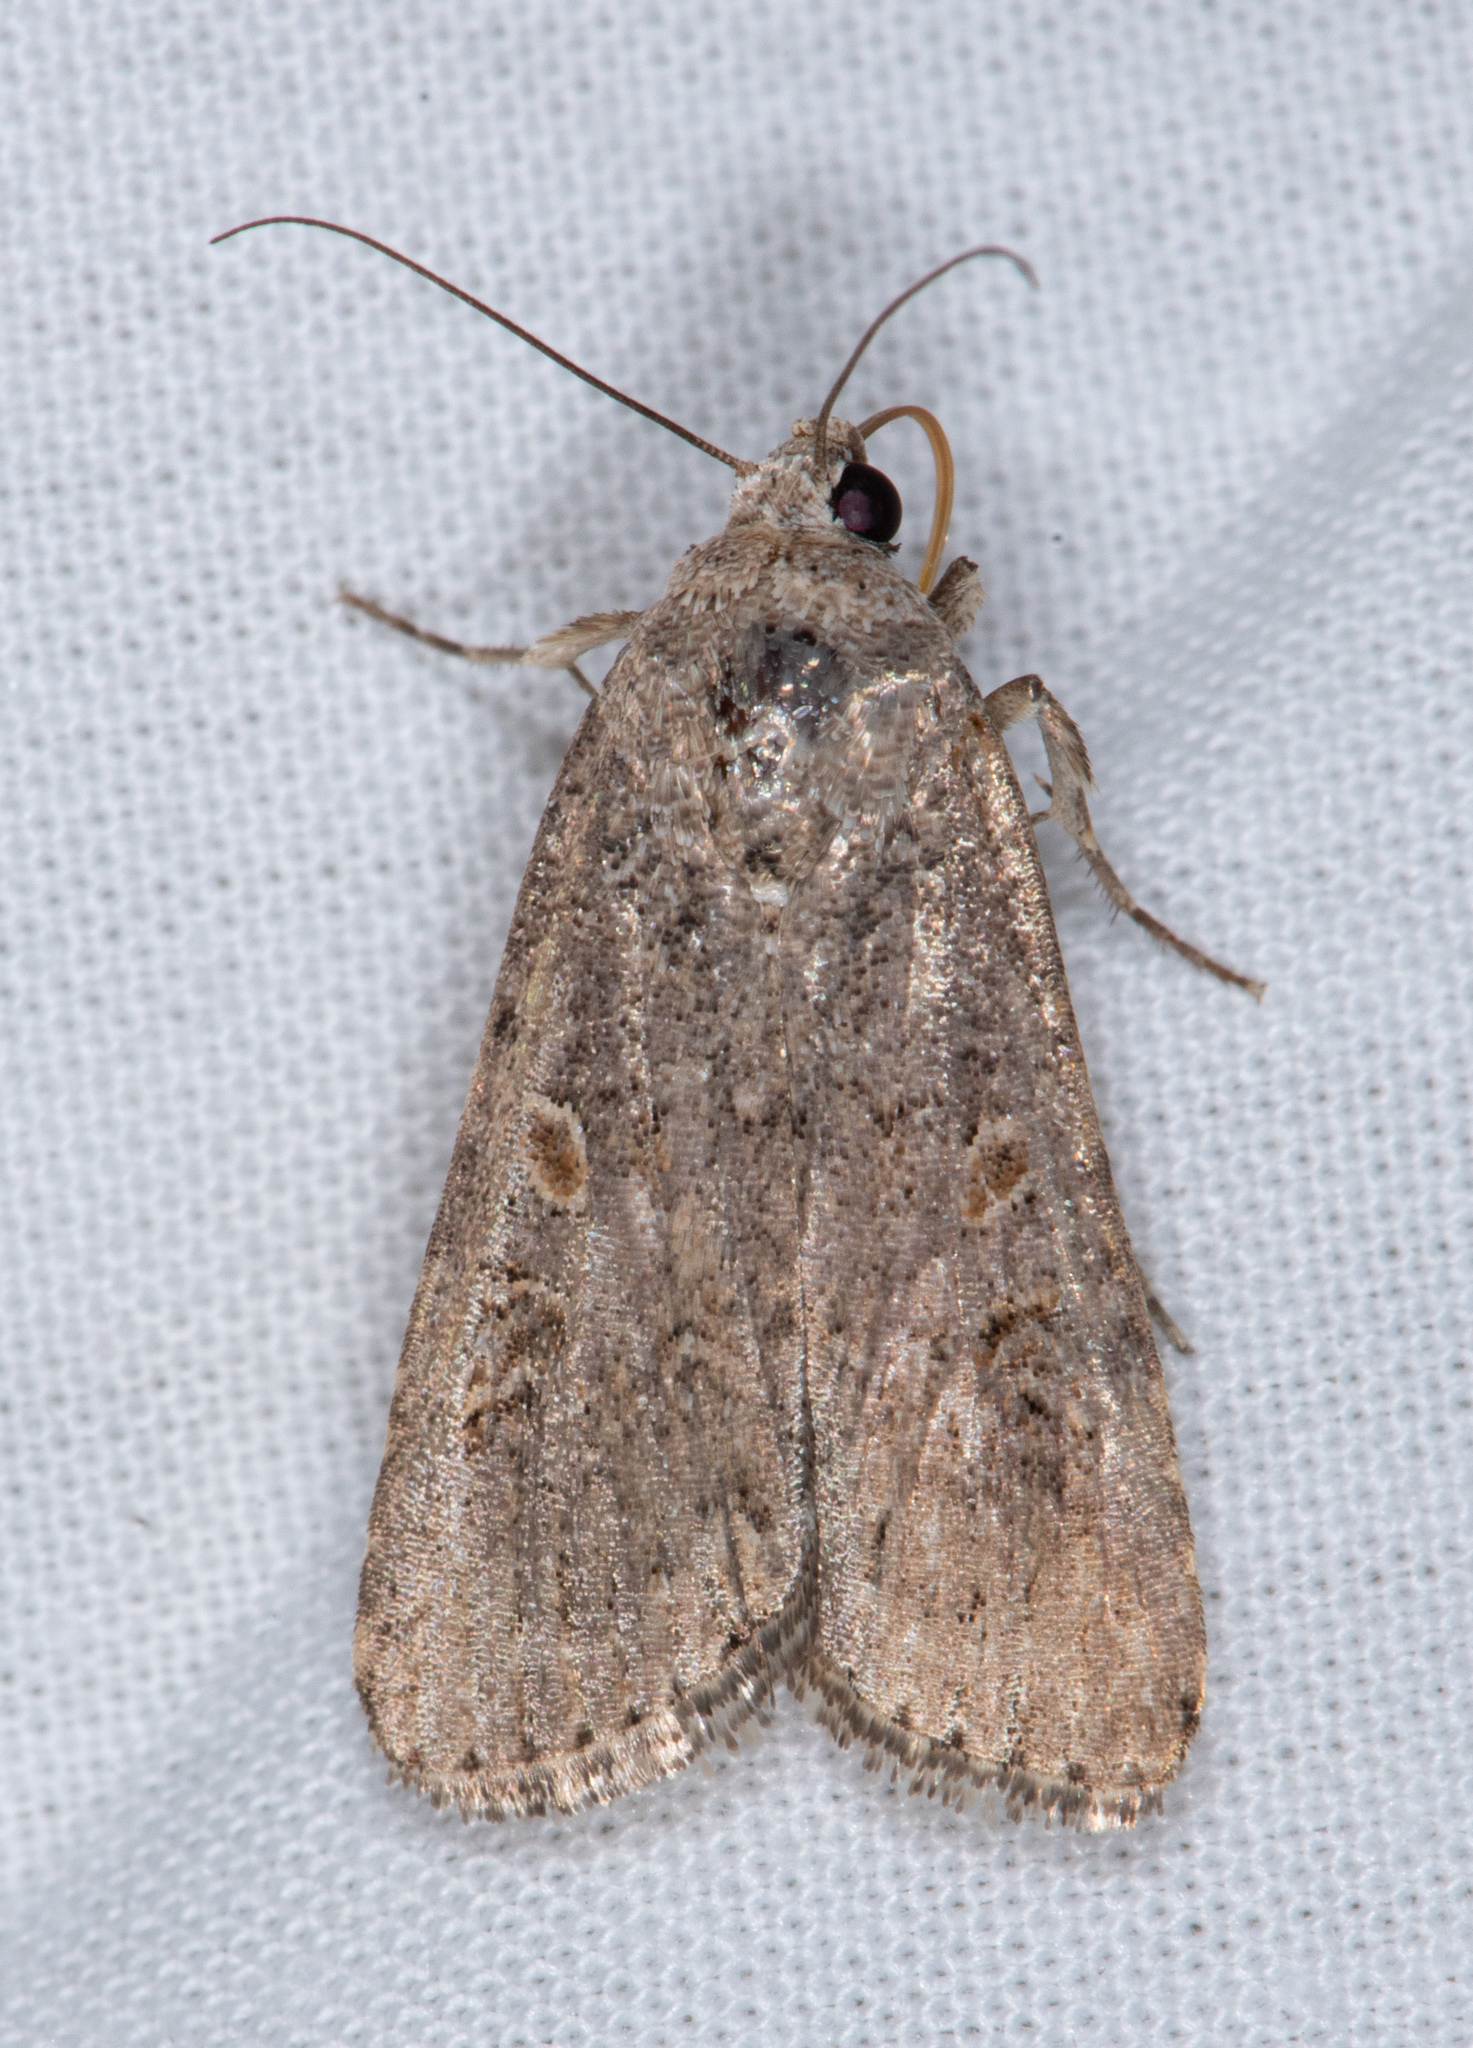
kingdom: Animalia
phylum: Arthropoda
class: Insecta
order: Lepidoptera
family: Noctuidae
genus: Spodoptera
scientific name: Spodoptera exigua
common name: Beet armyworm
